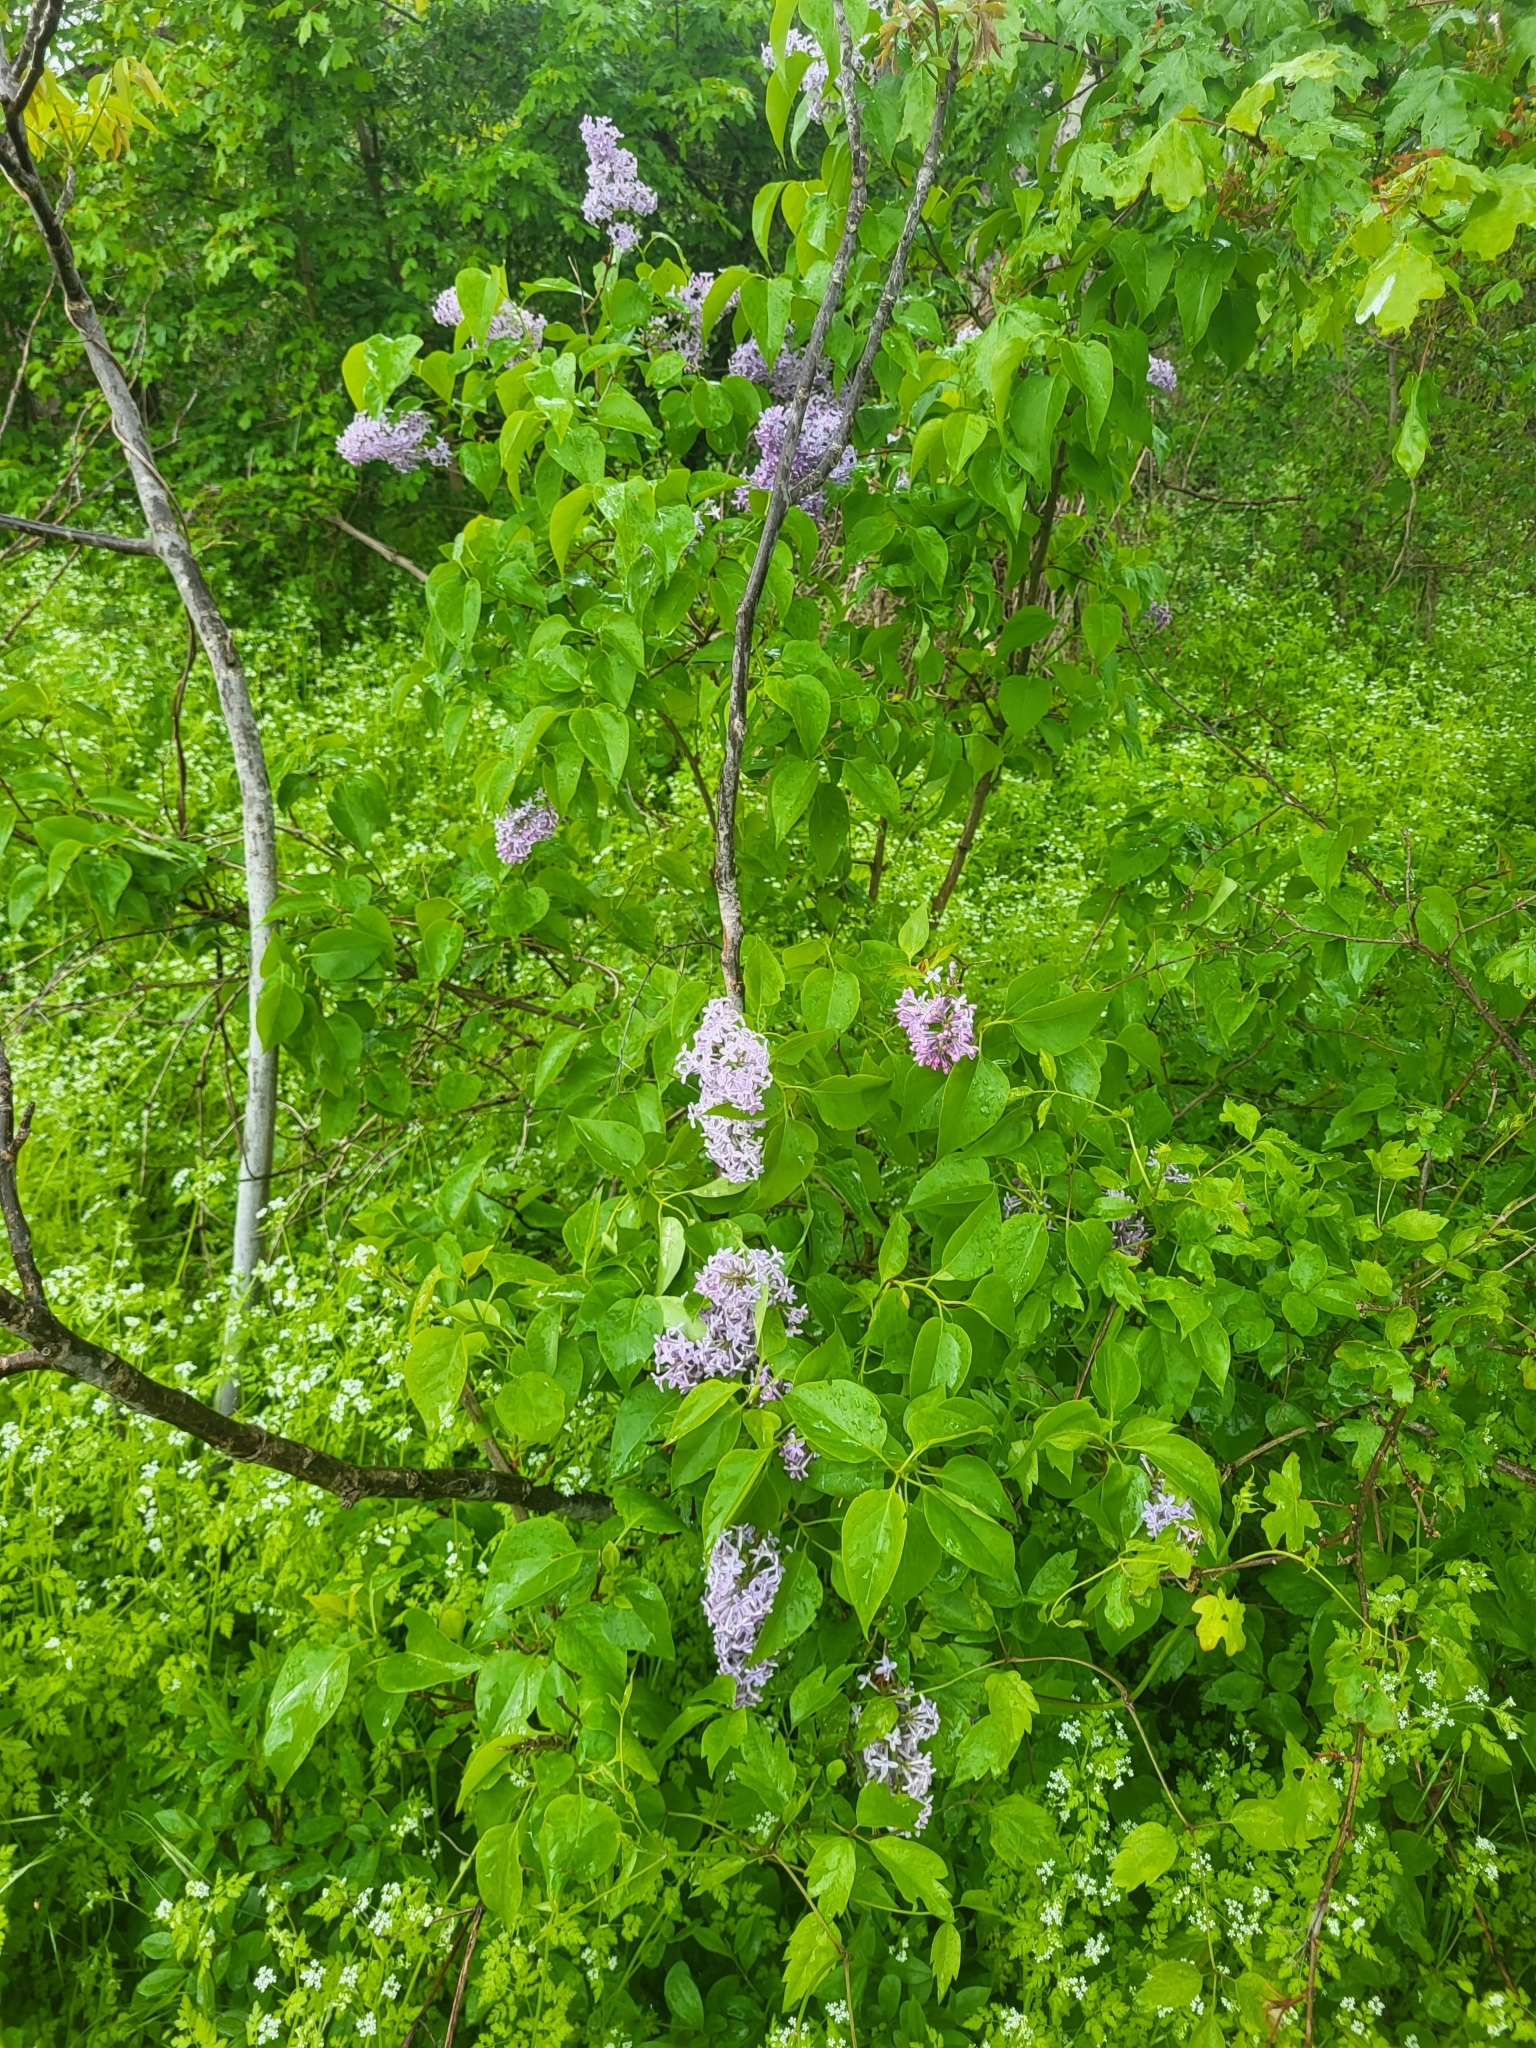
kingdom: Plantae
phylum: Tracheophyta
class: Magnoliopsida
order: Lamiales
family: Oleaceae
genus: Syringa
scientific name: Syringa vulgaris
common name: Common lilac
